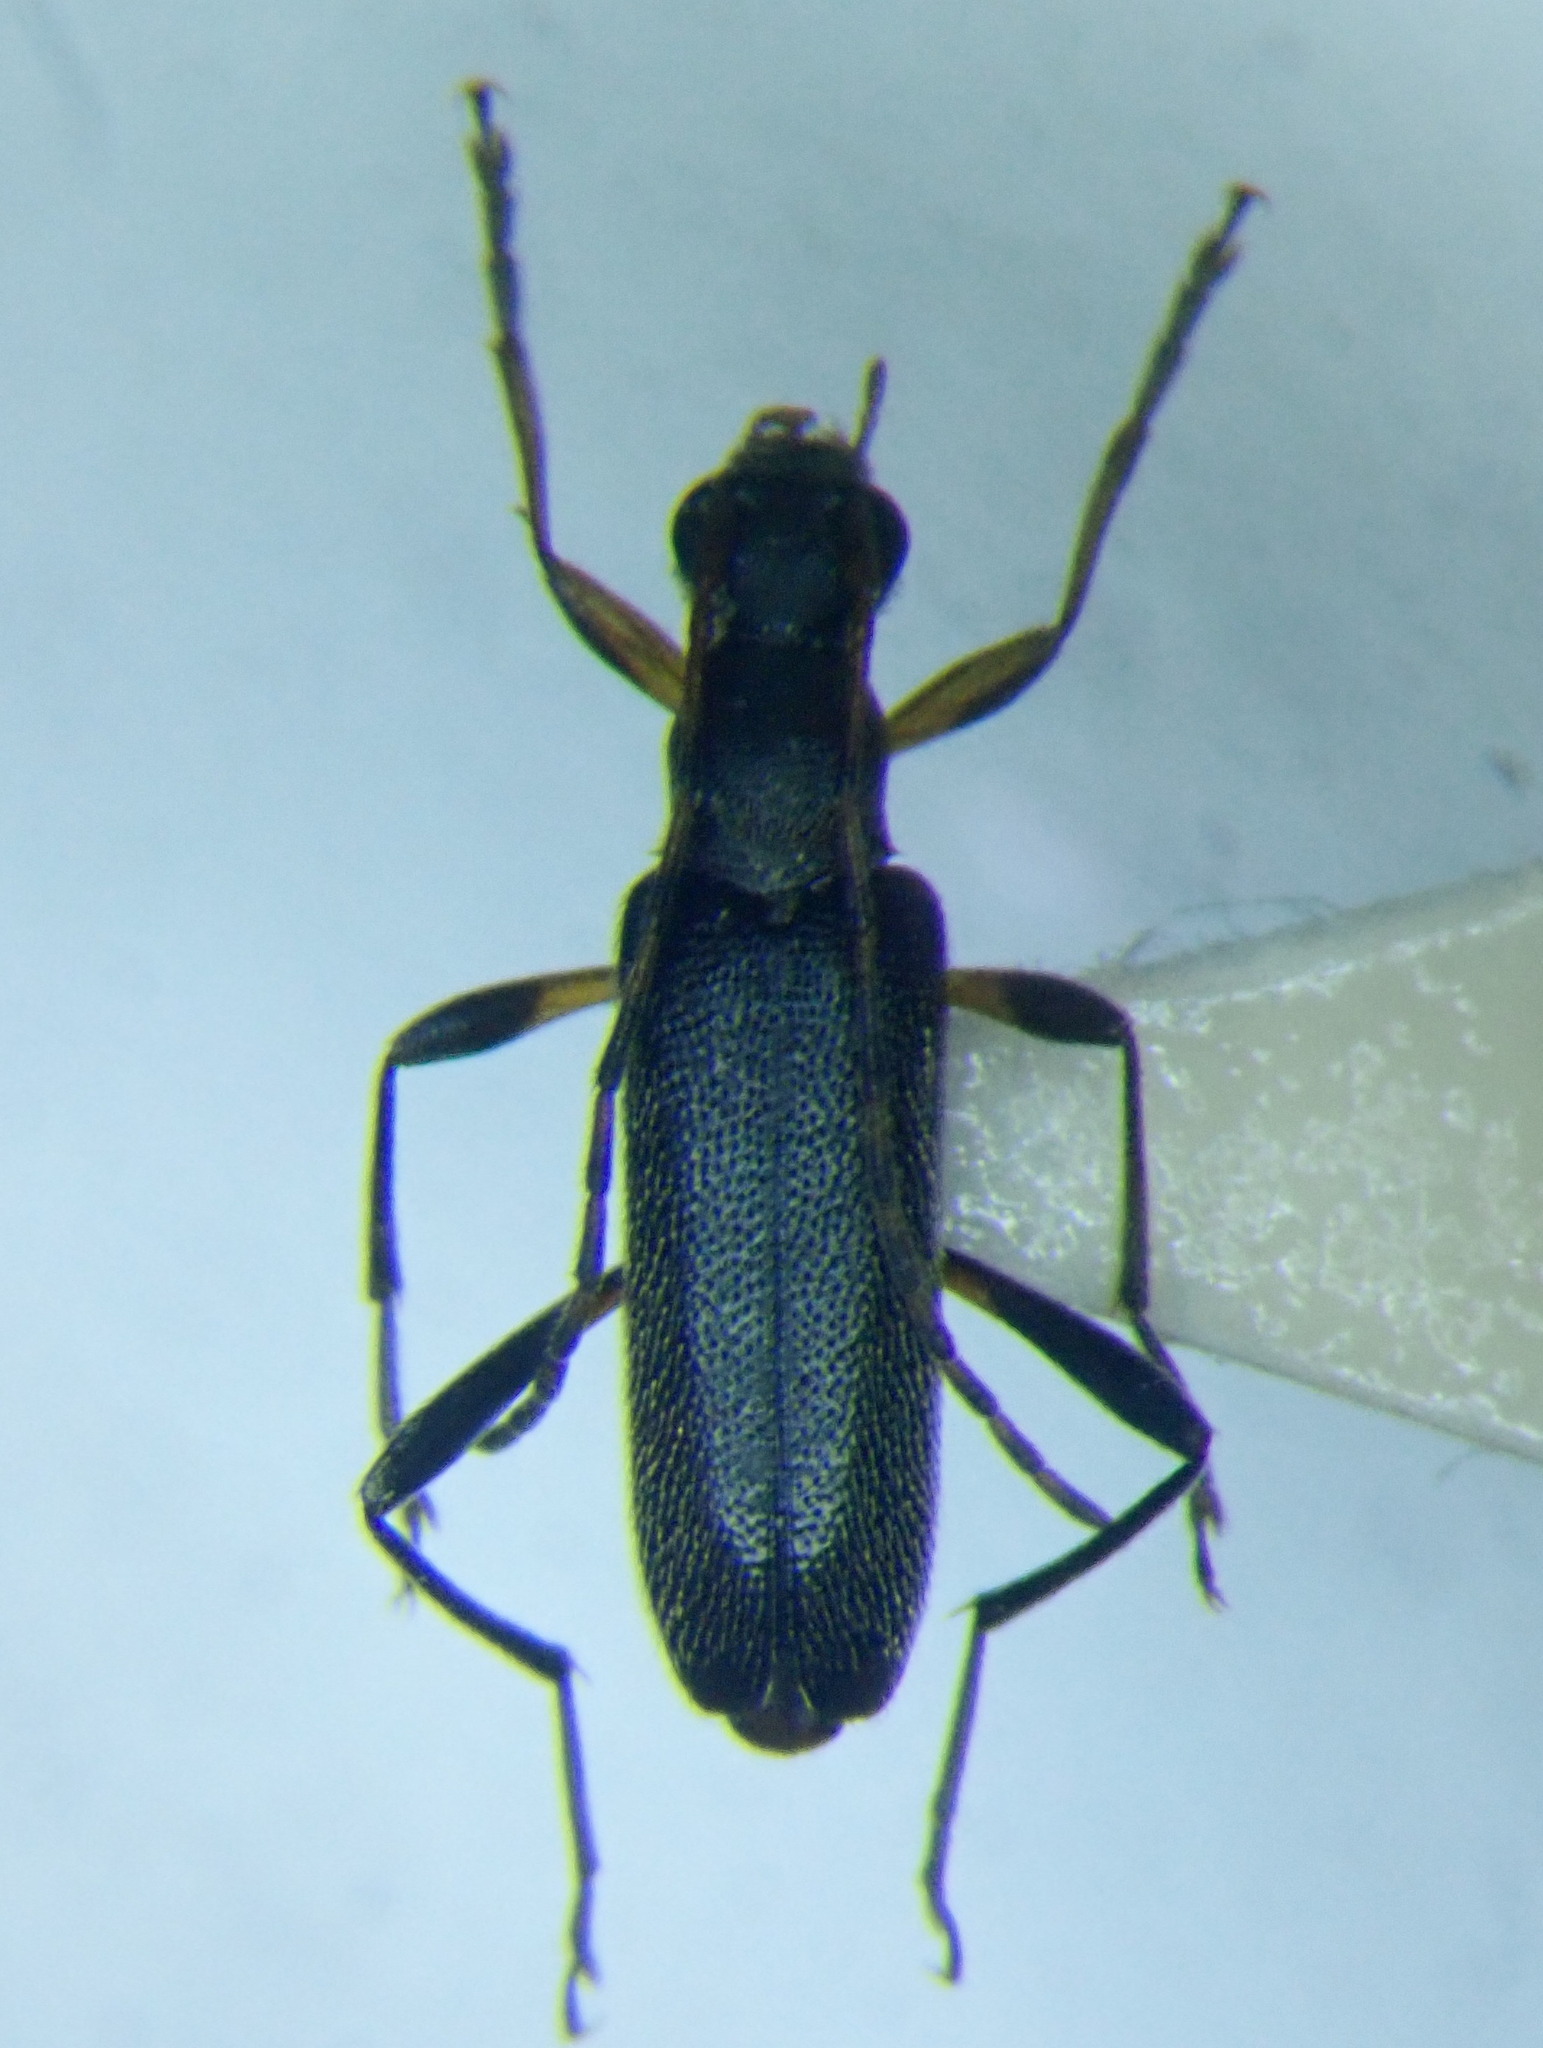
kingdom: Animalia
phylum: Arthropoda
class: Insecta
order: Coleoptera
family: Cerambycidae
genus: Grammoptera
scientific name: Grammoptera ruficornis
